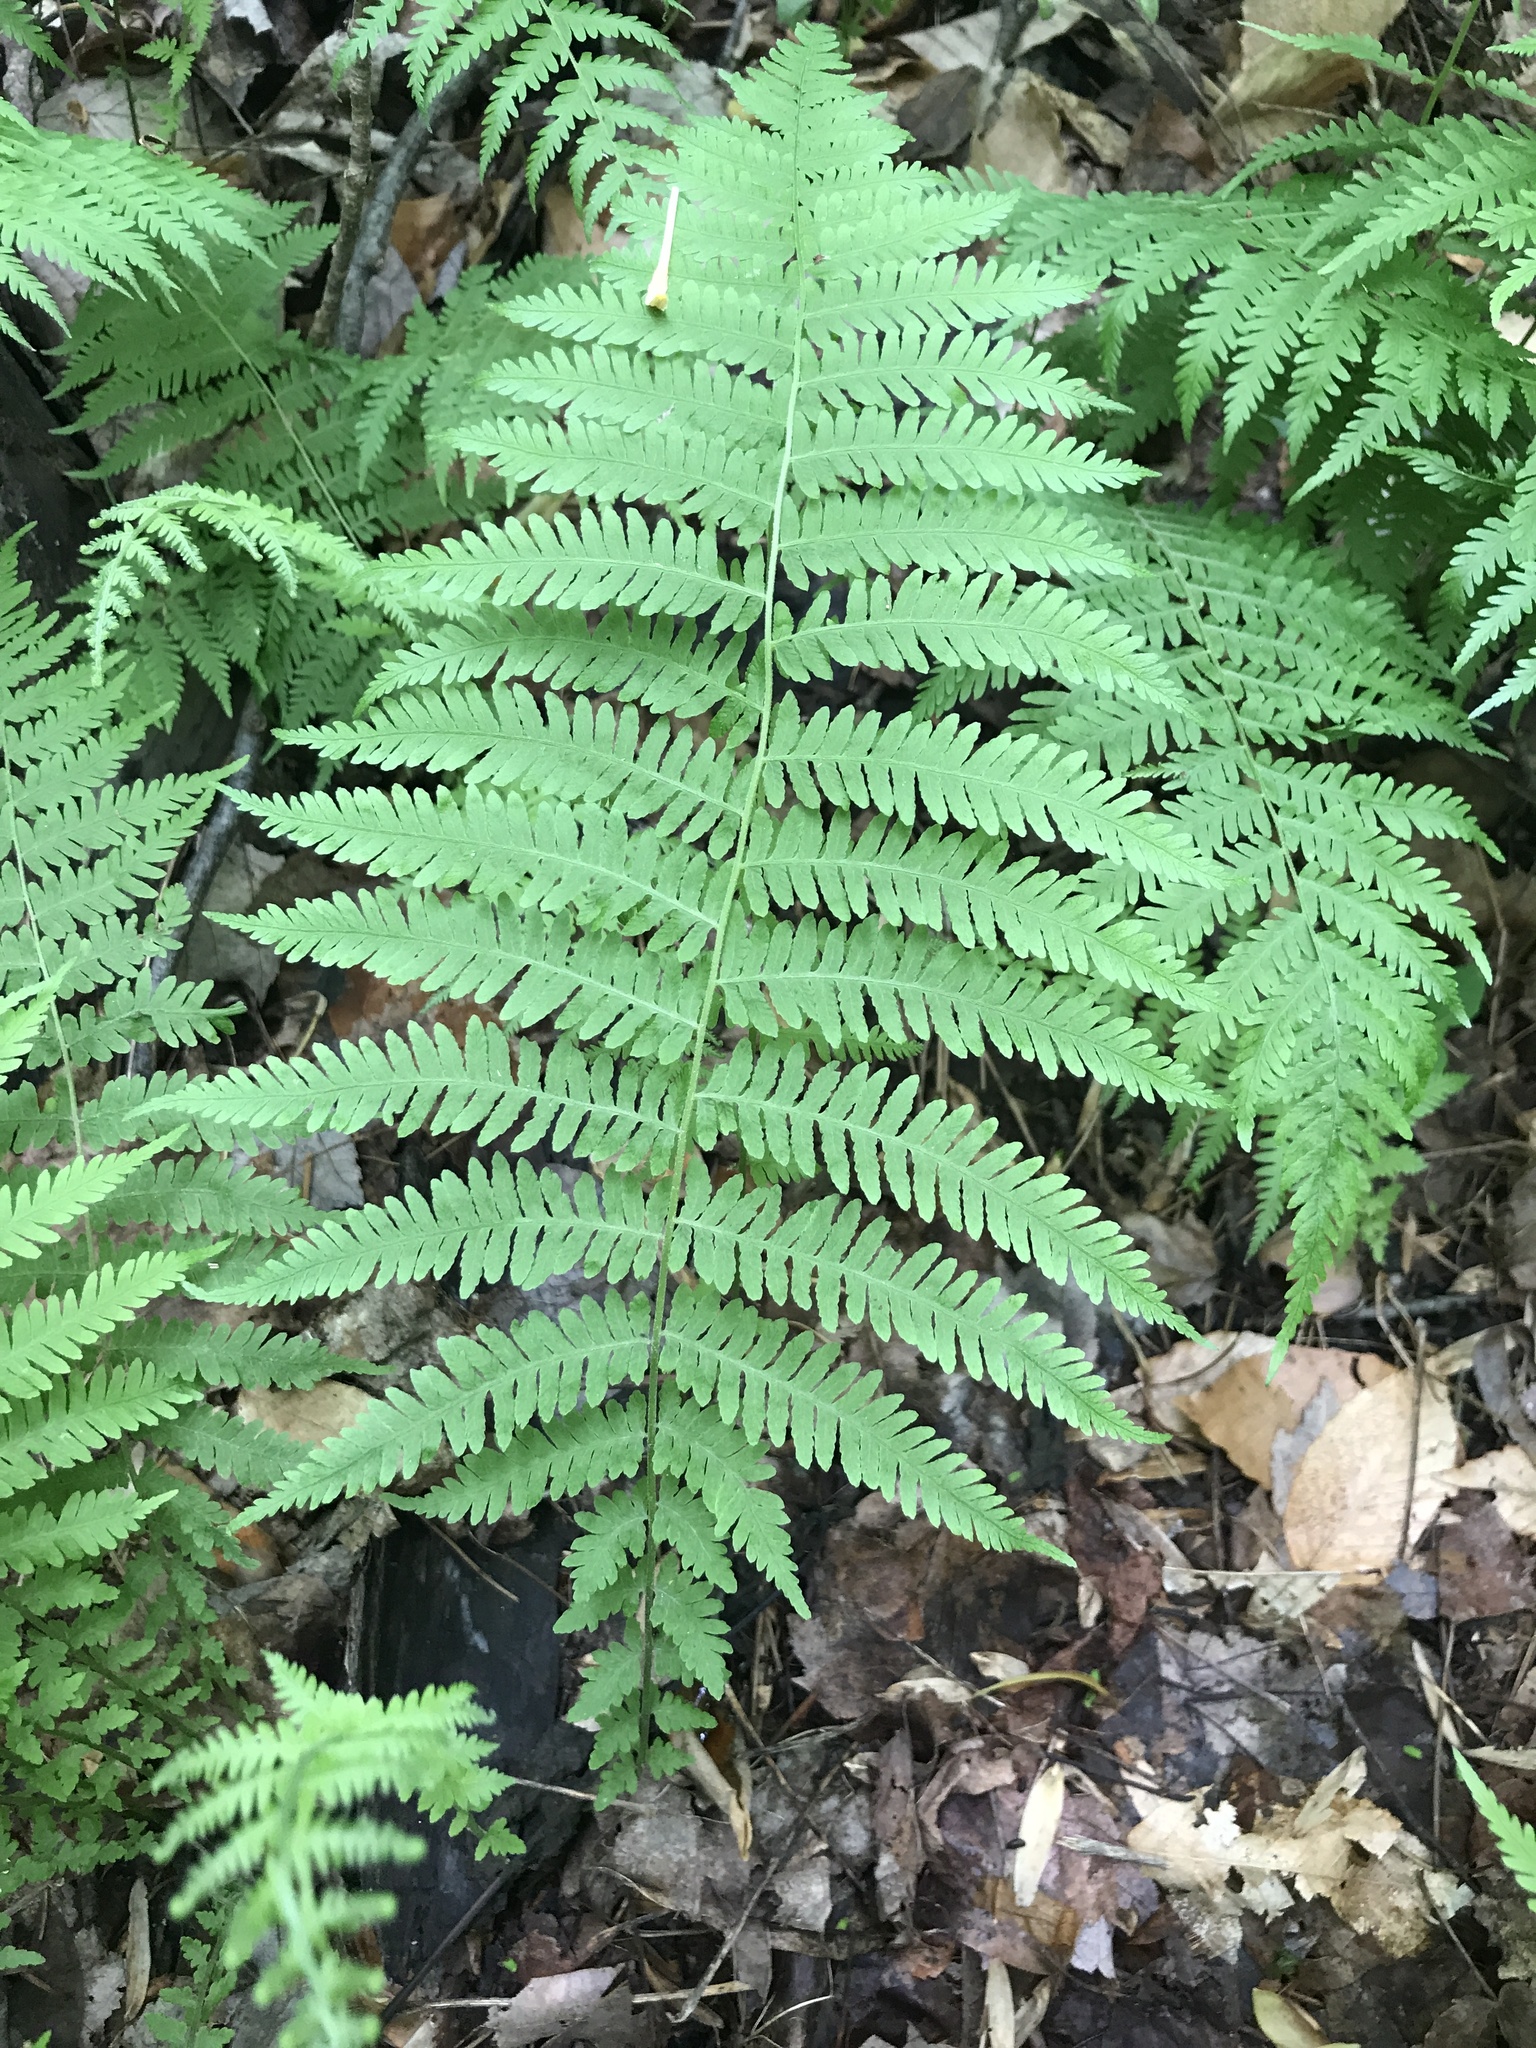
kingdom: Plantae
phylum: Tracheophyta
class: Polypodiopsida
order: Polypodiales
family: Thelypteridaceae
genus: Amauropelta
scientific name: Amauropelta noveboracensis
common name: New york fern
